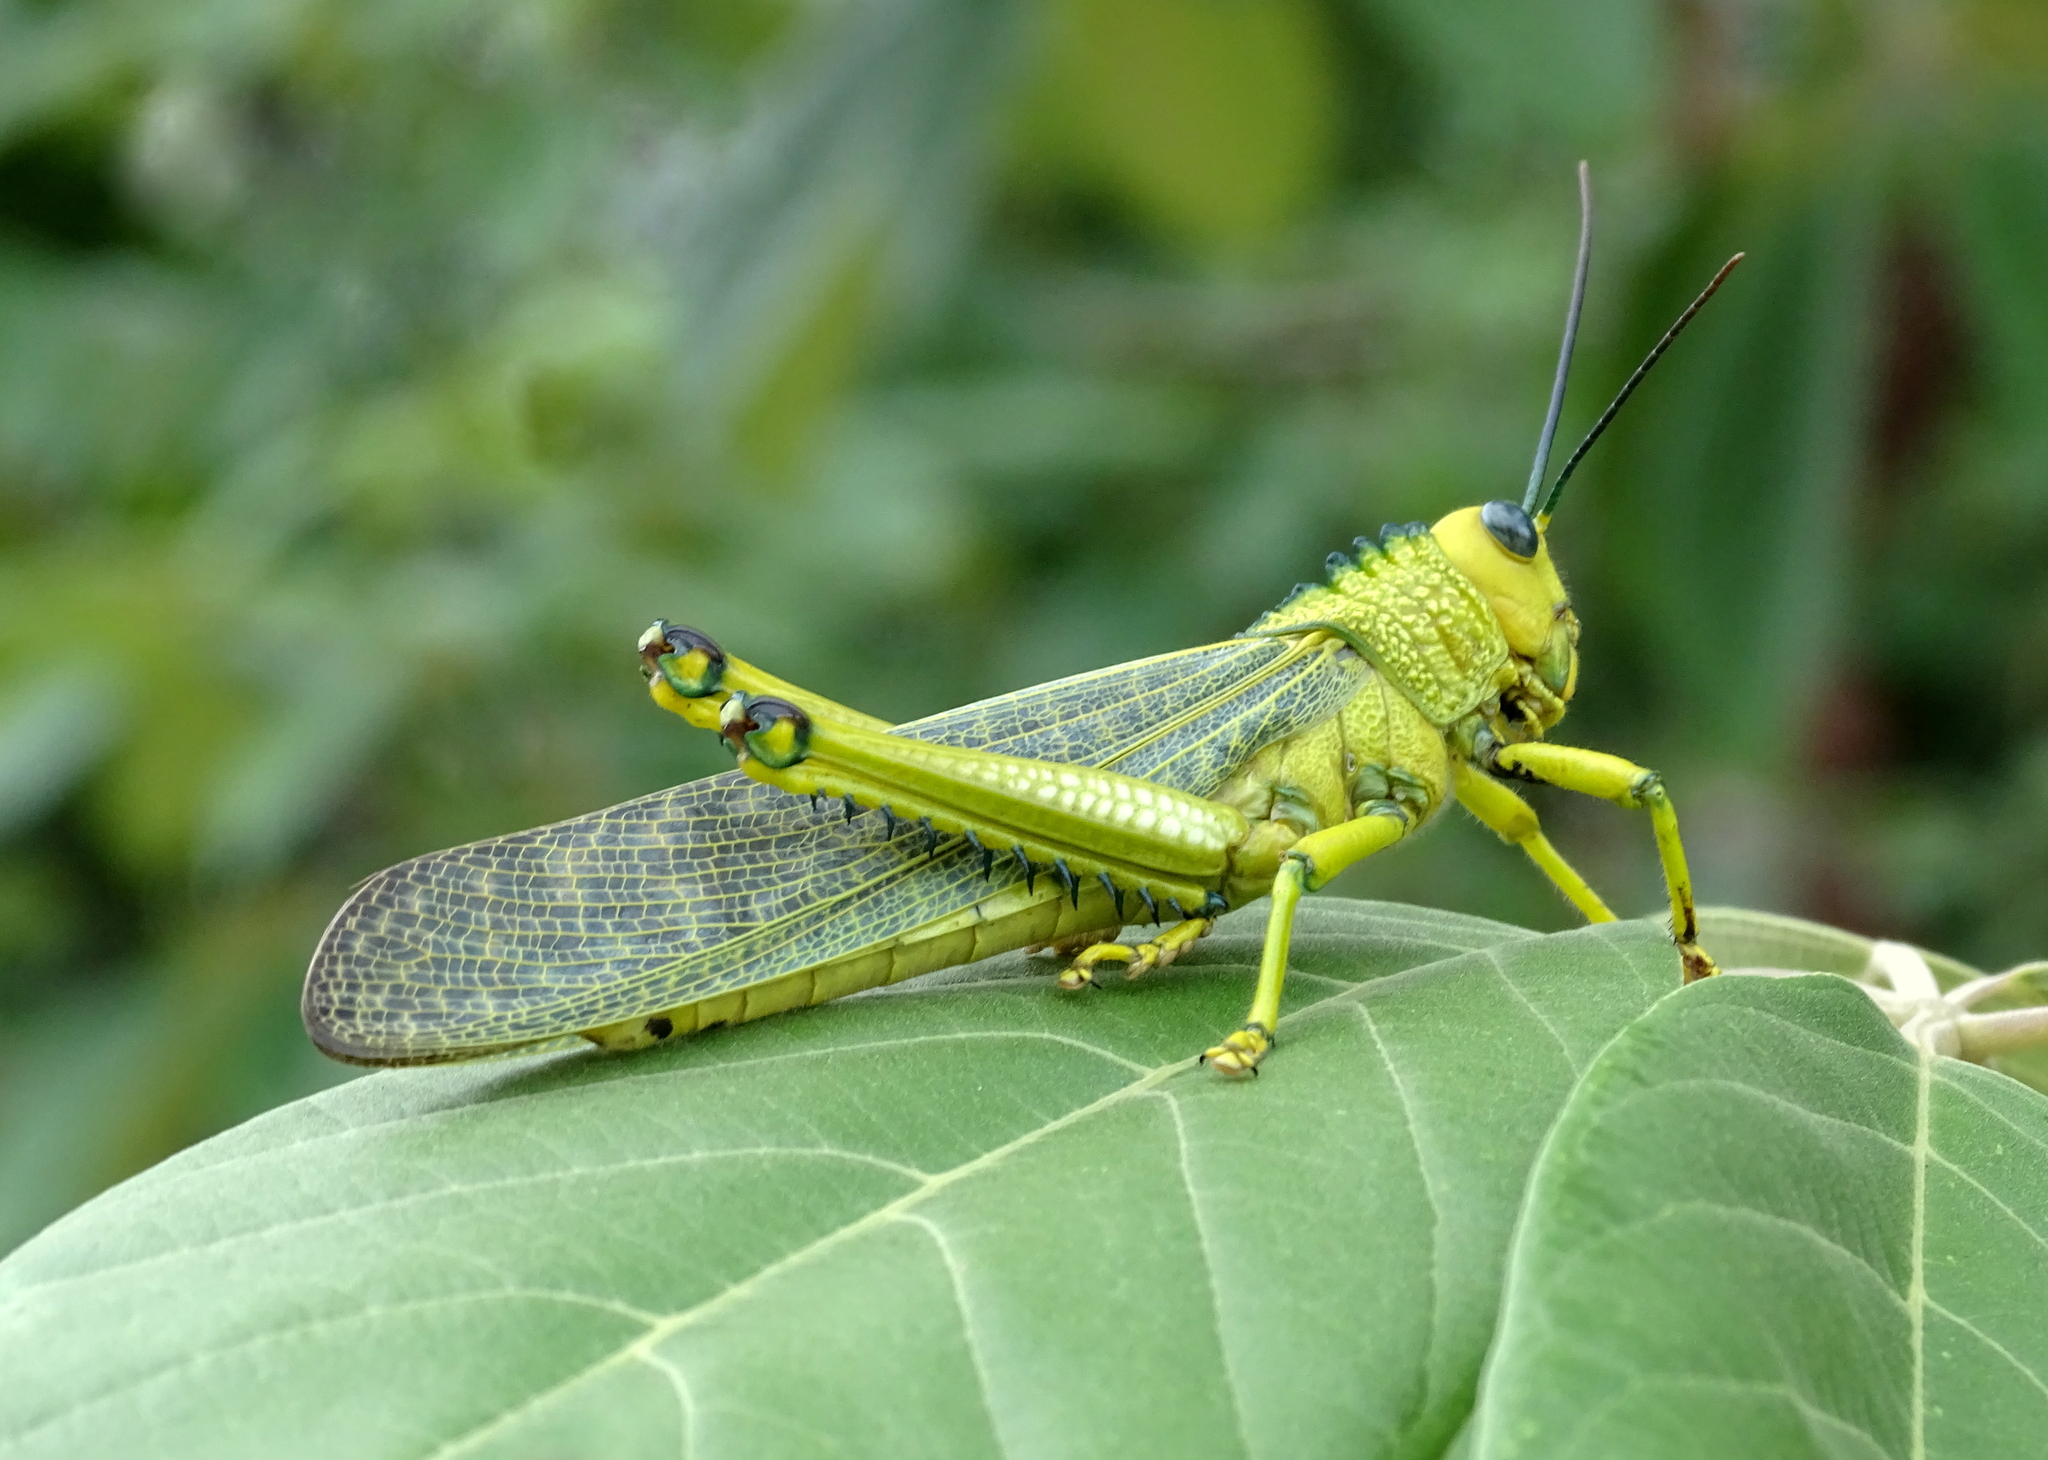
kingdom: Animalia
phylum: Arthropoda
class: Insecta
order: Orthoptera
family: Romaleidae
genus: Tropidacris
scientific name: Tropidacris cristata
